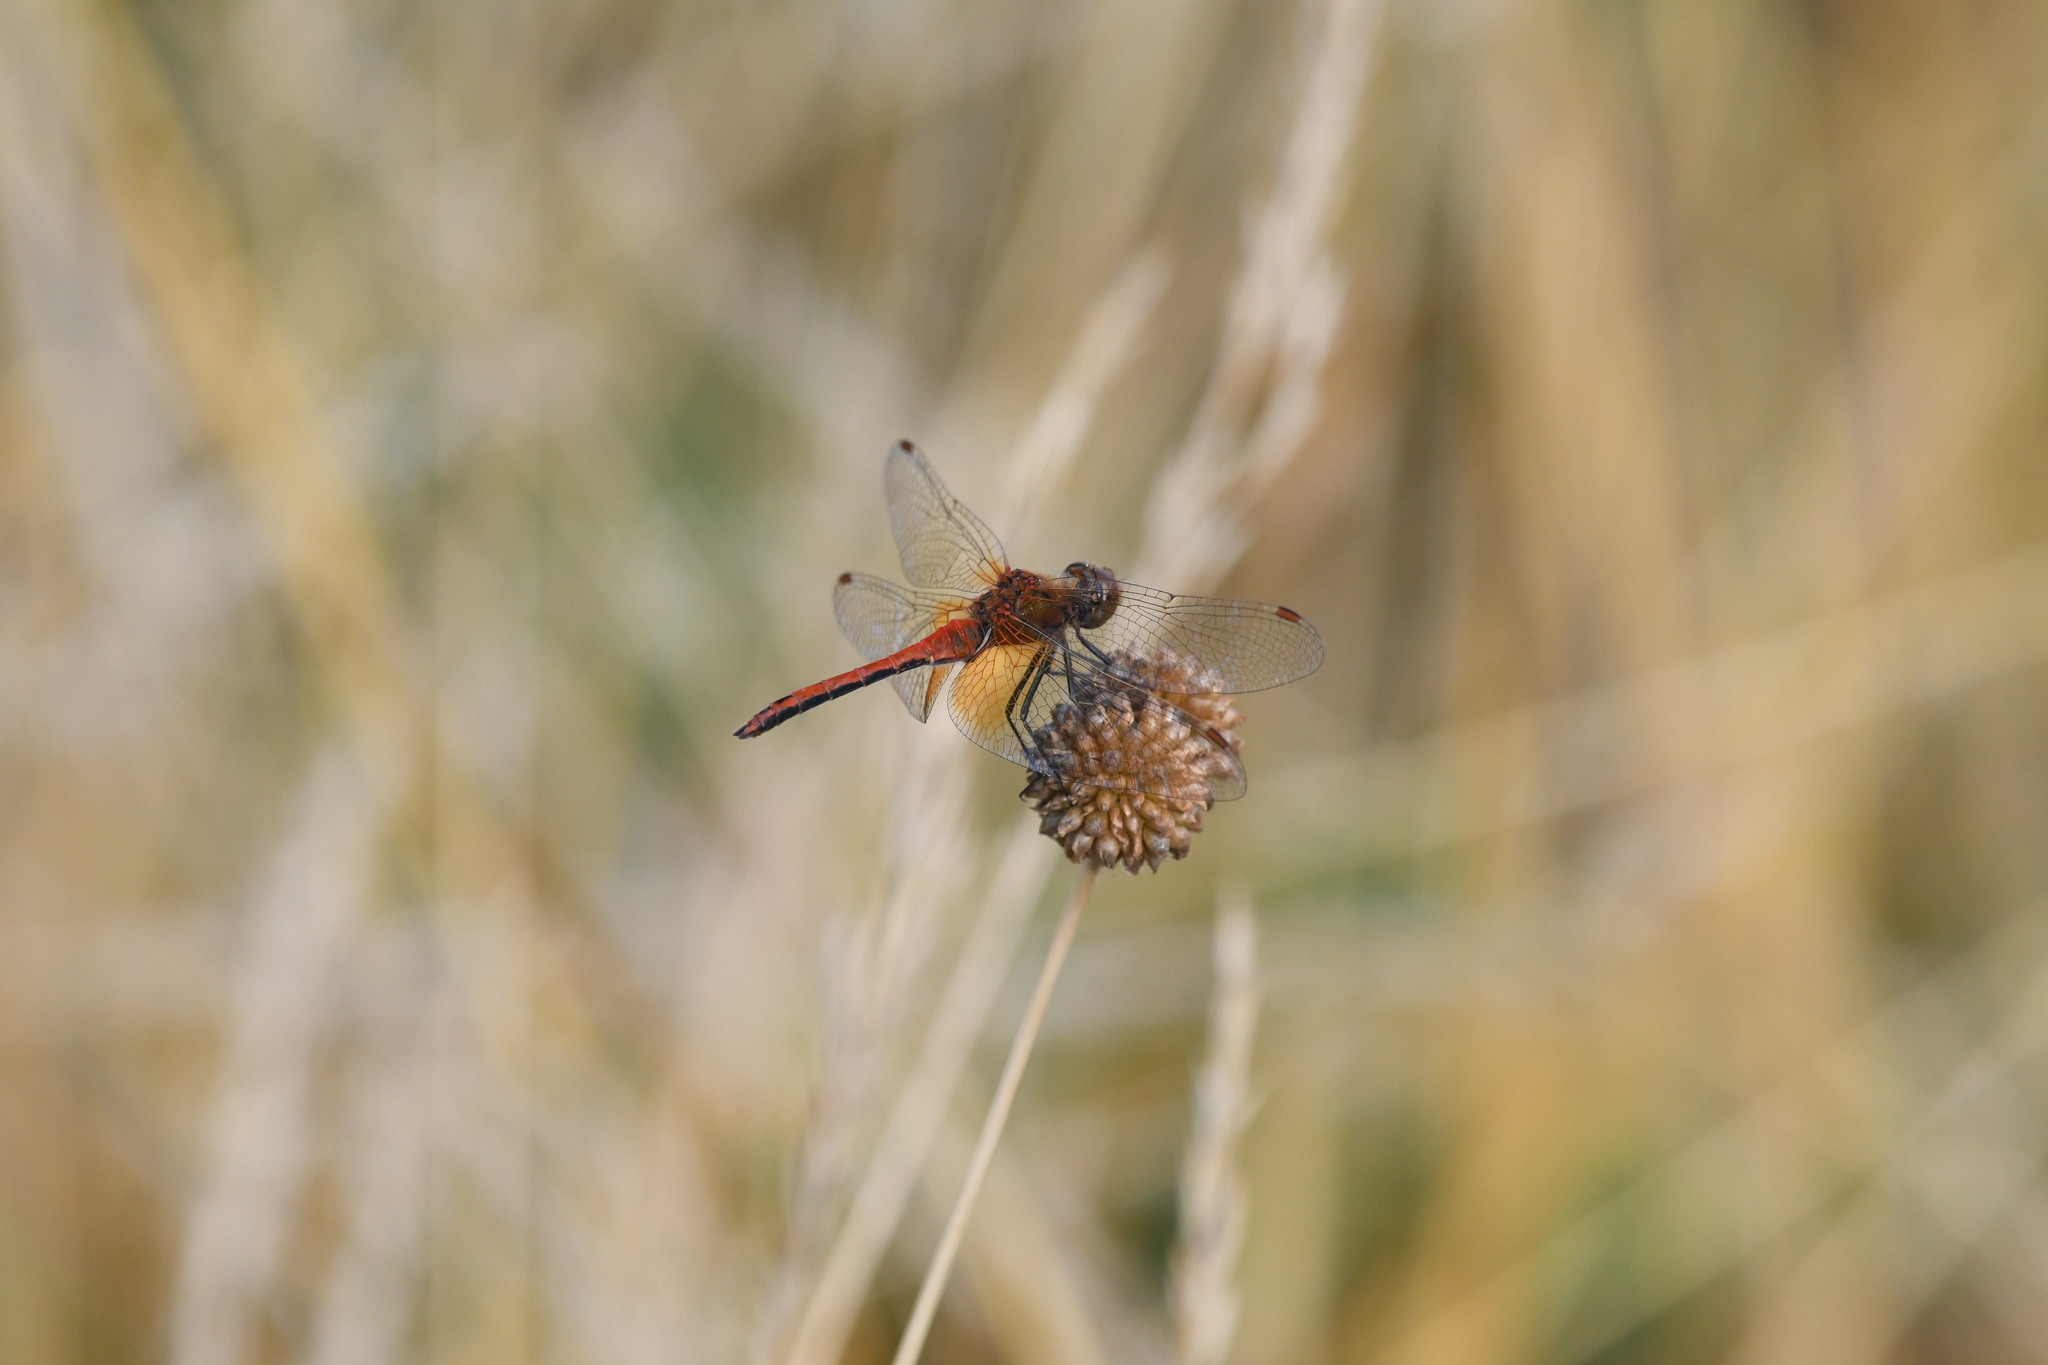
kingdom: Animalia
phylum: Arthropoda
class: Insecta
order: Odonata
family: Libellulidae
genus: Sympetrum
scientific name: Sympetrum flaveolum
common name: Yellow-winged darter
